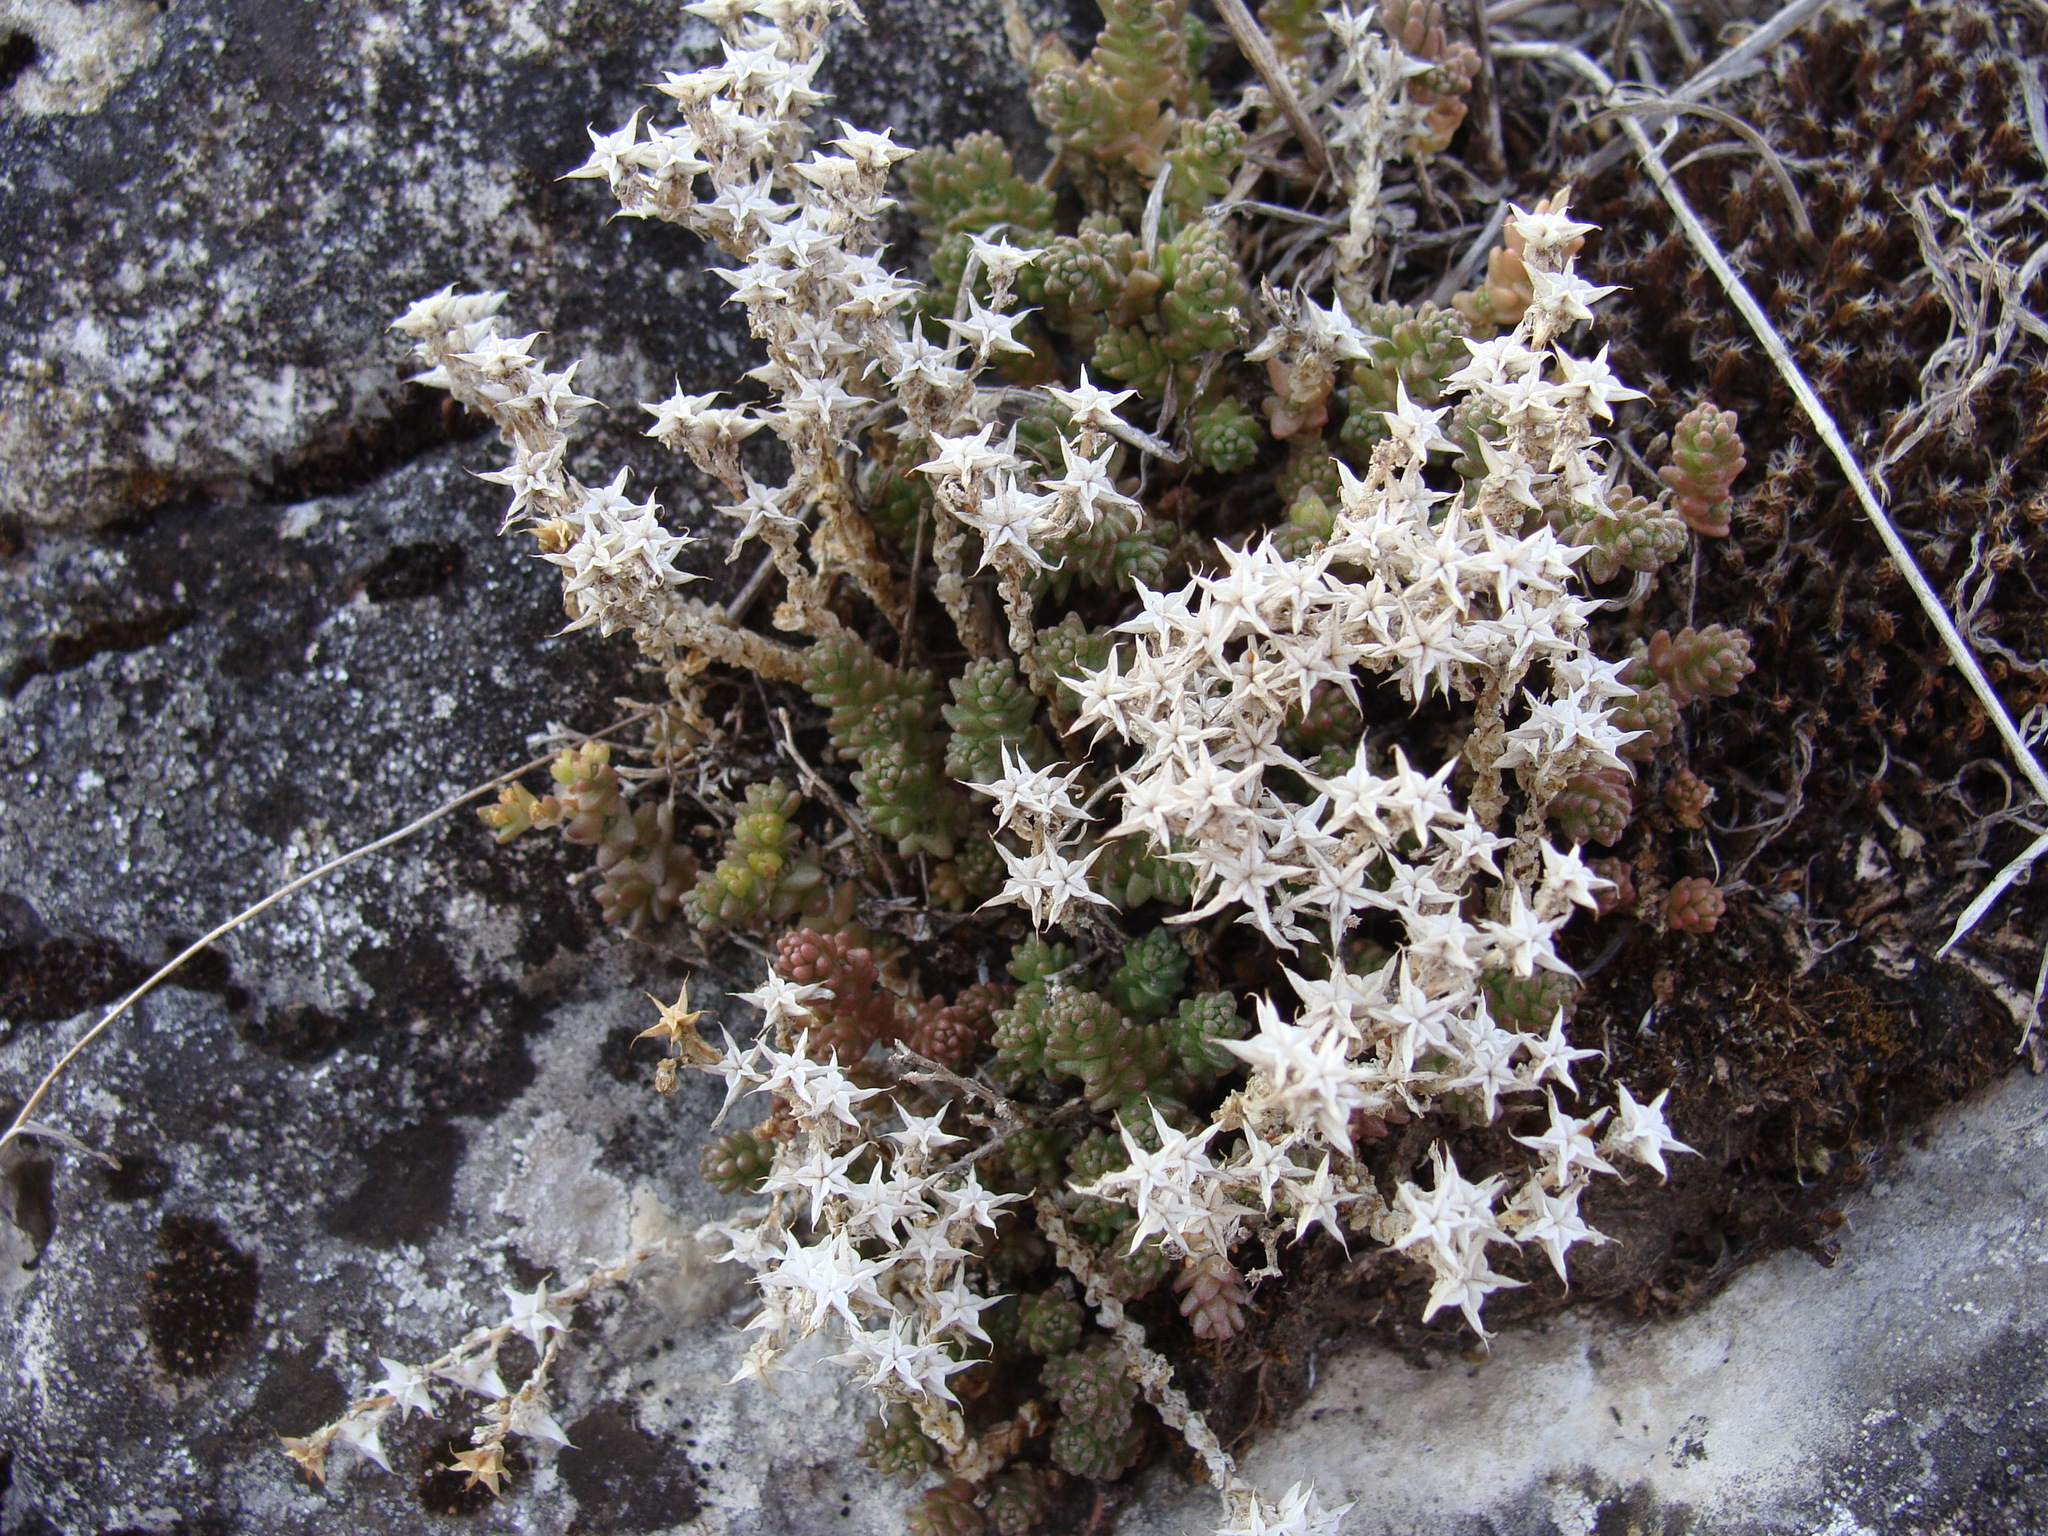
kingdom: Plantae
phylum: Tracheophyta
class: Magnoliopsida
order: Saxifragales
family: Crassulaceae
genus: Sedum
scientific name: Sedum acre
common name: Biting stonecrop
